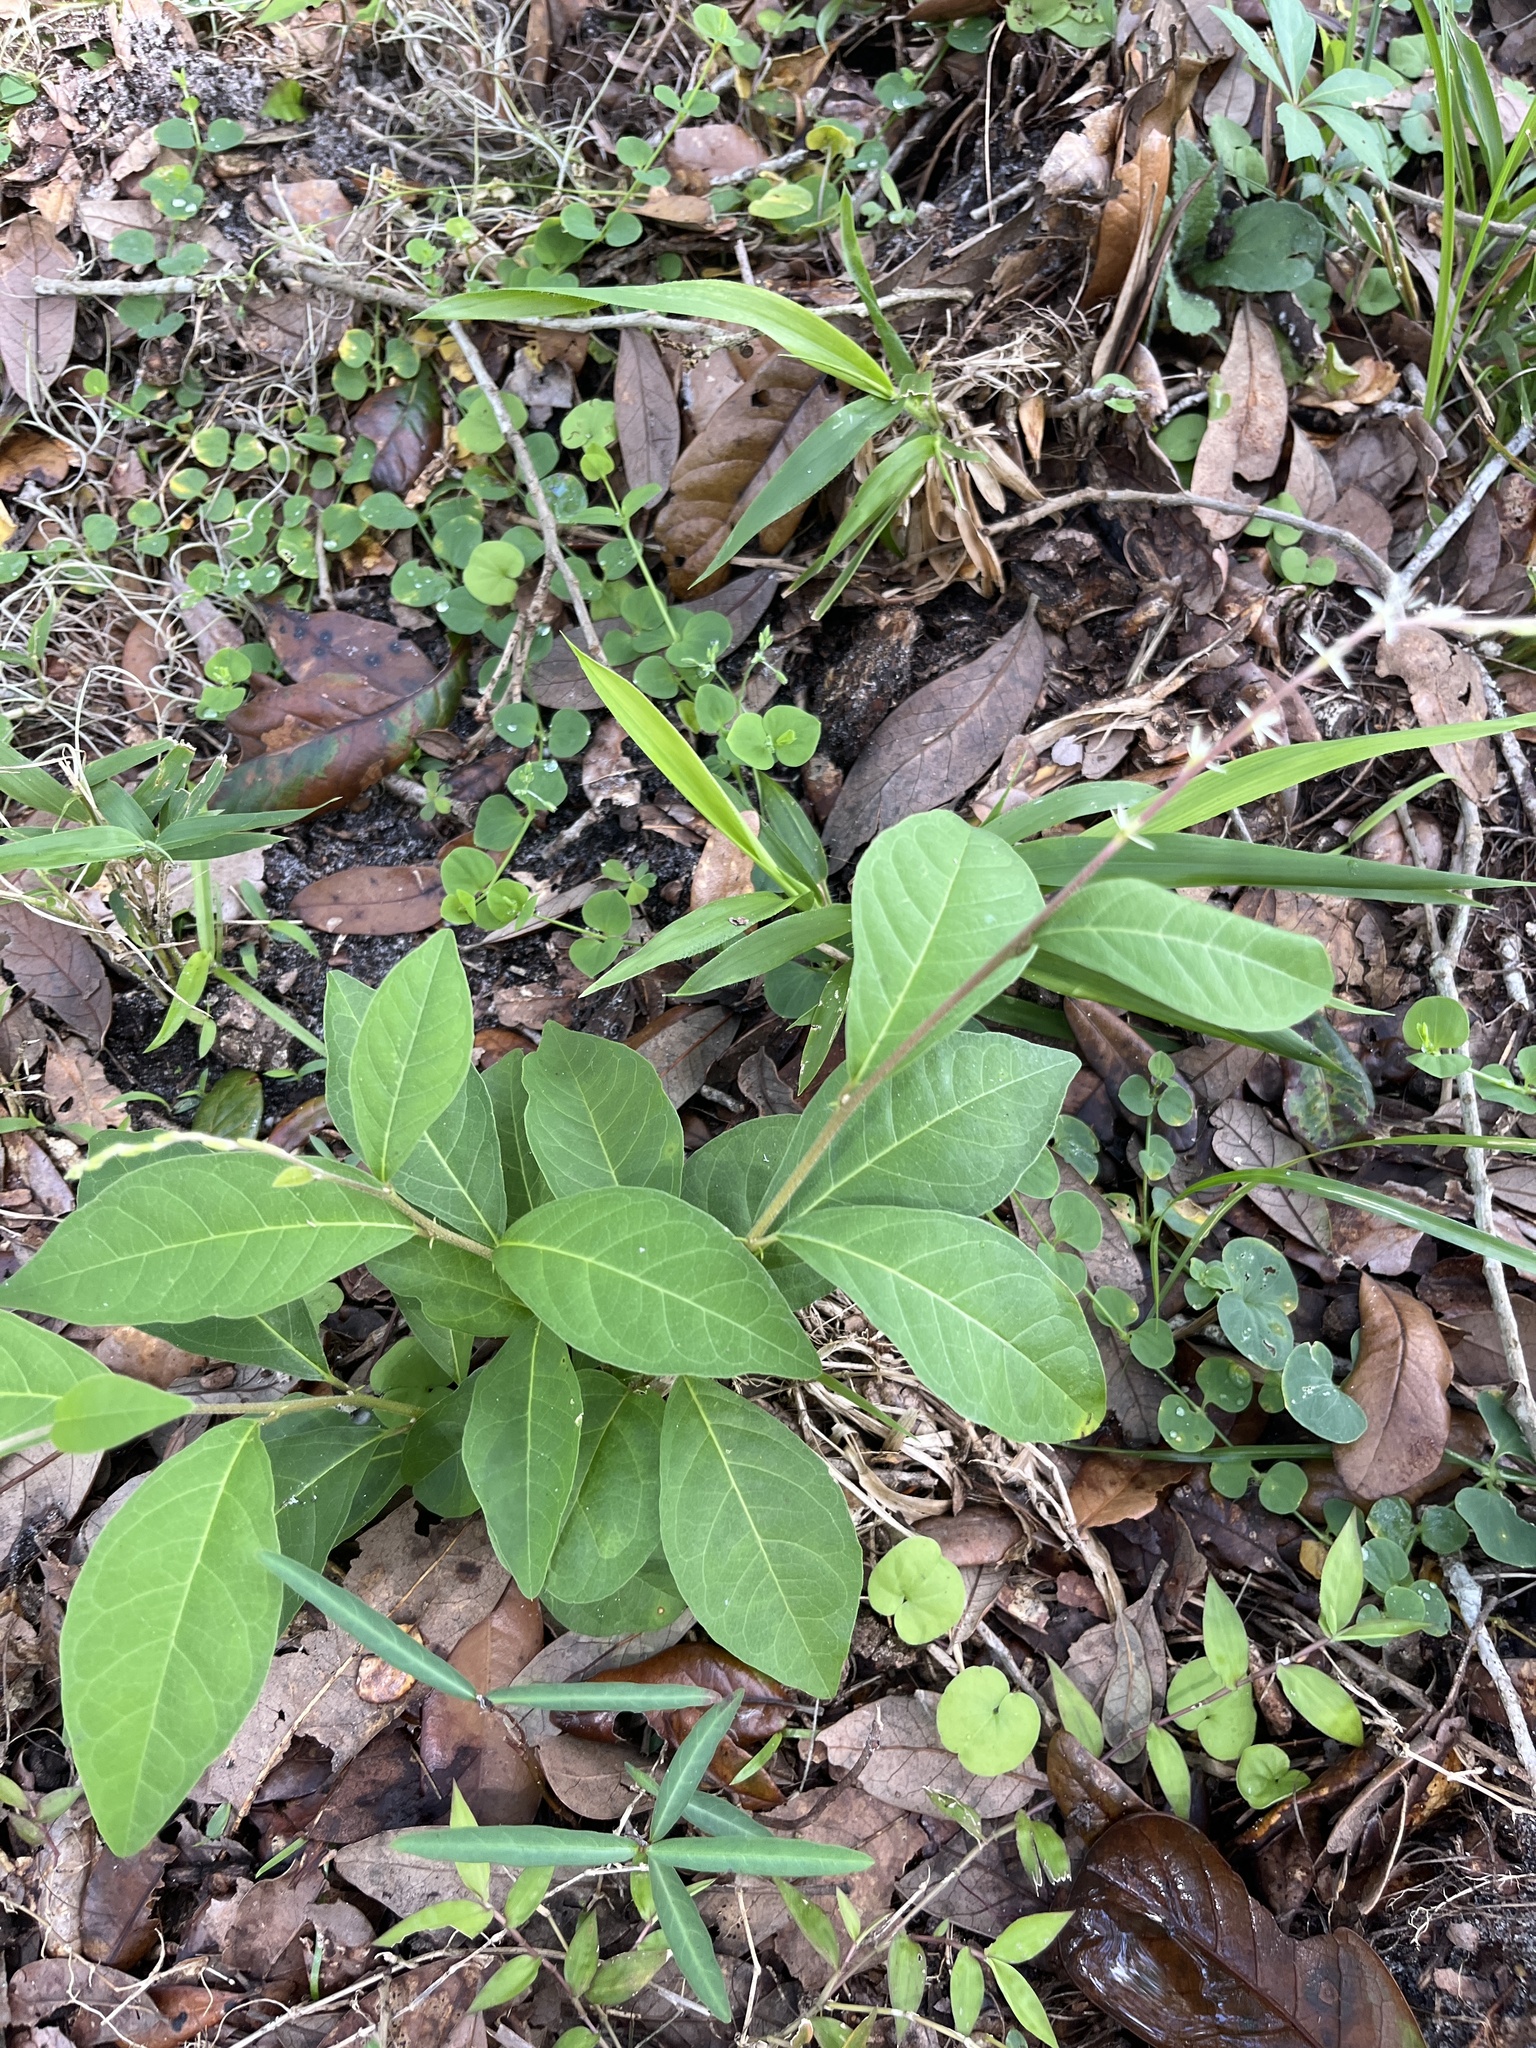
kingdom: Plantae
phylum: Tracheophyta
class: Magnoliopsida
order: Caryophyllales
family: Phytolaccaceae
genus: Petiveria
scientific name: Petiveria alliacea
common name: Garlicweed
